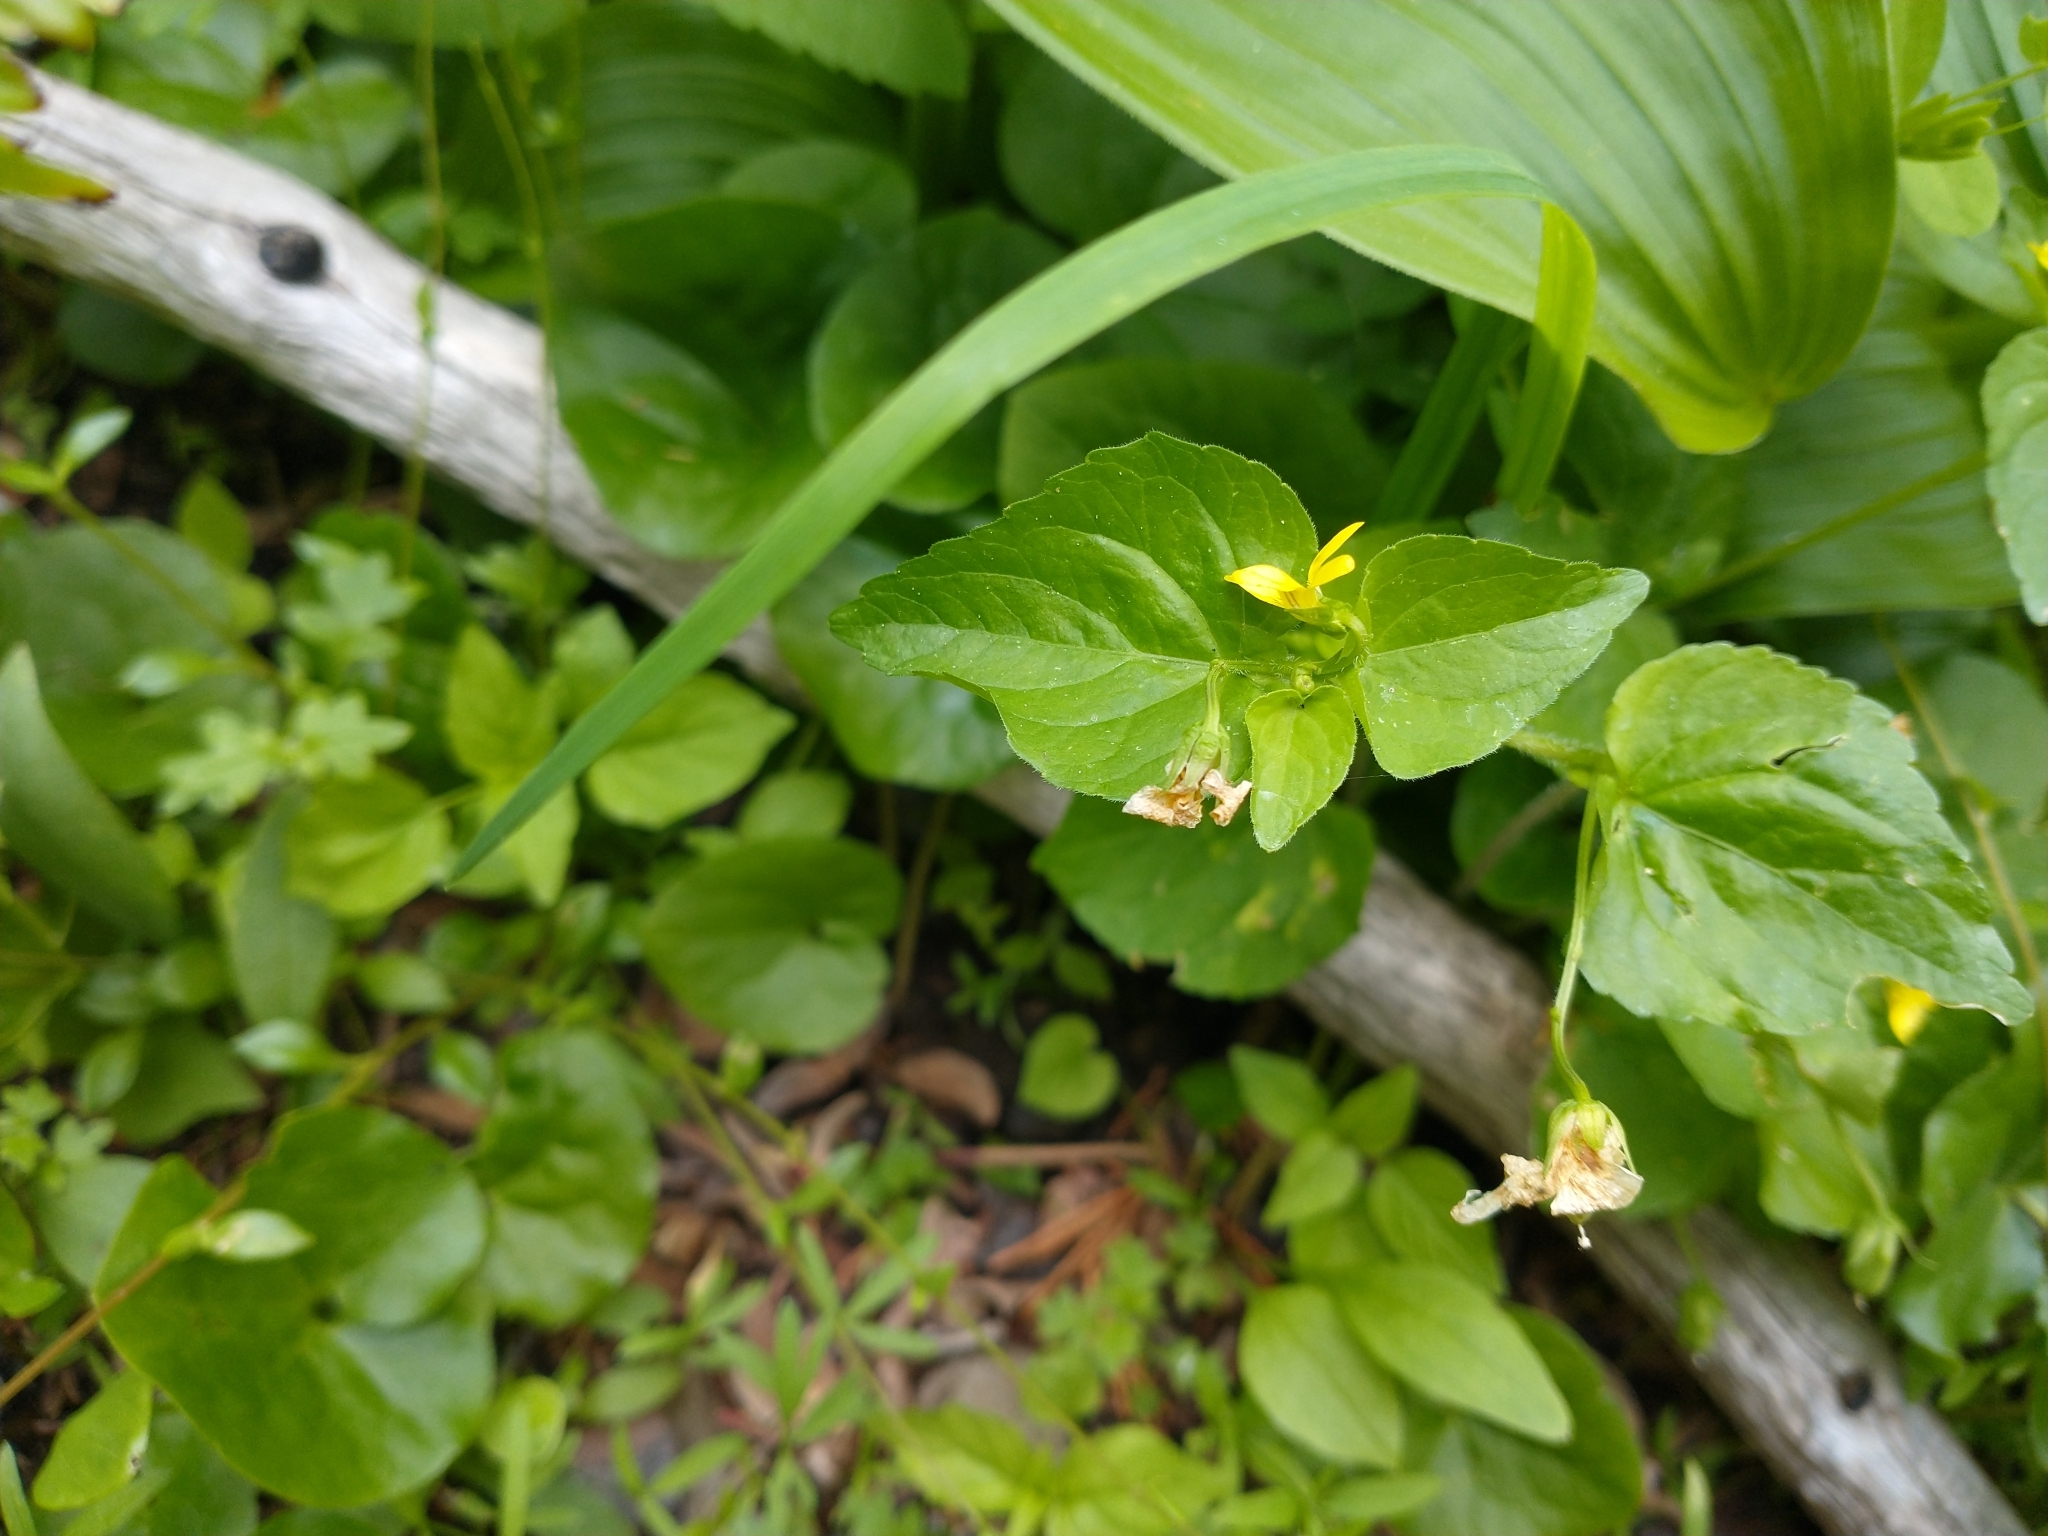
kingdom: Plantae
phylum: Tracheophyta
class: Magnoliopsida
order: Malpighiales
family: Violaceae
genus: Viola
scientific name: Viola glabella
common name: Stream violet
